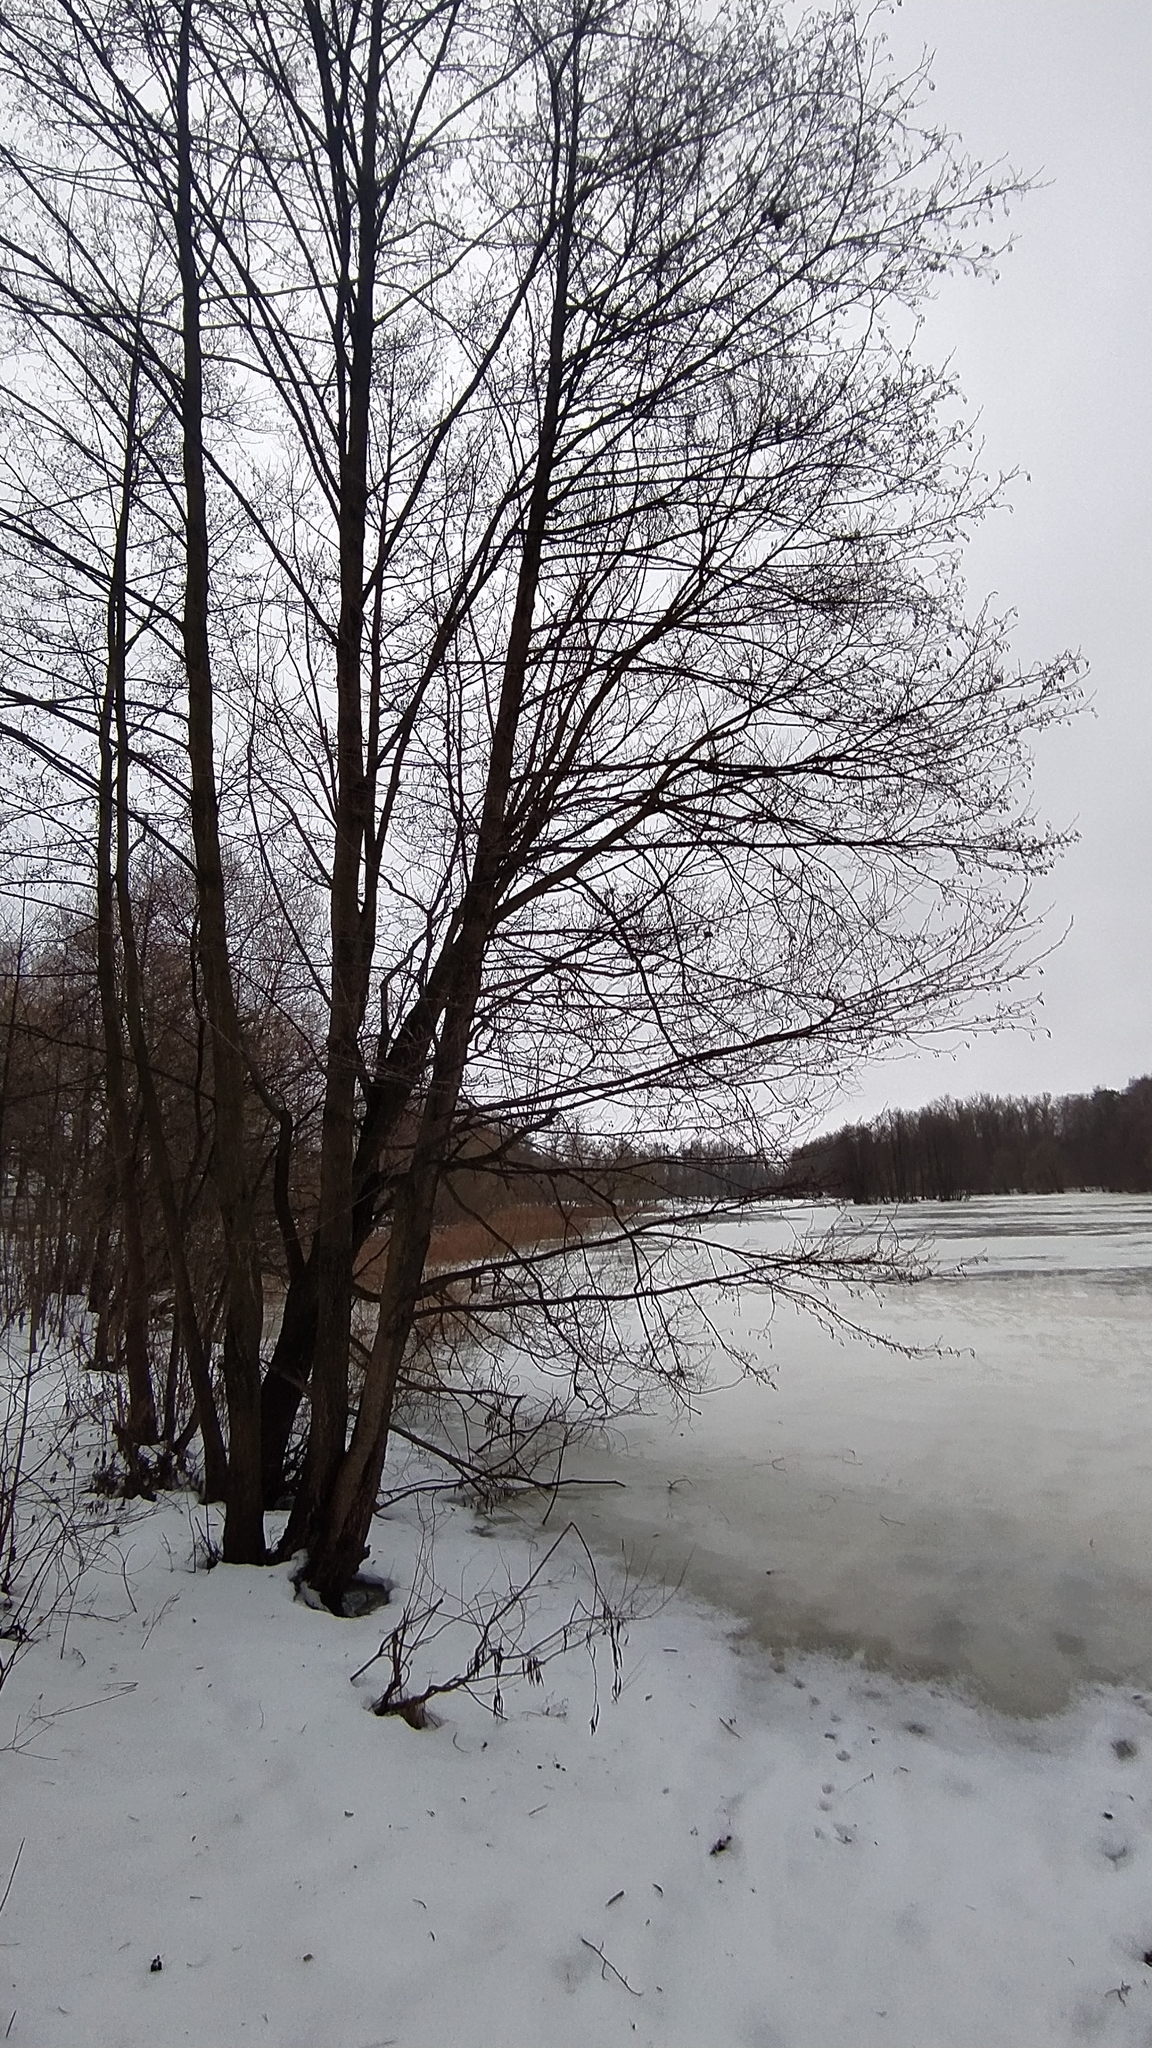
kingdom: Plantae
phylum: Tracheophyta
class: Magnoliopsida
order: Fagales
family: Betulaceae
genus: Alnus
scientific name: Alnus glutinosa
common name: Black alder
